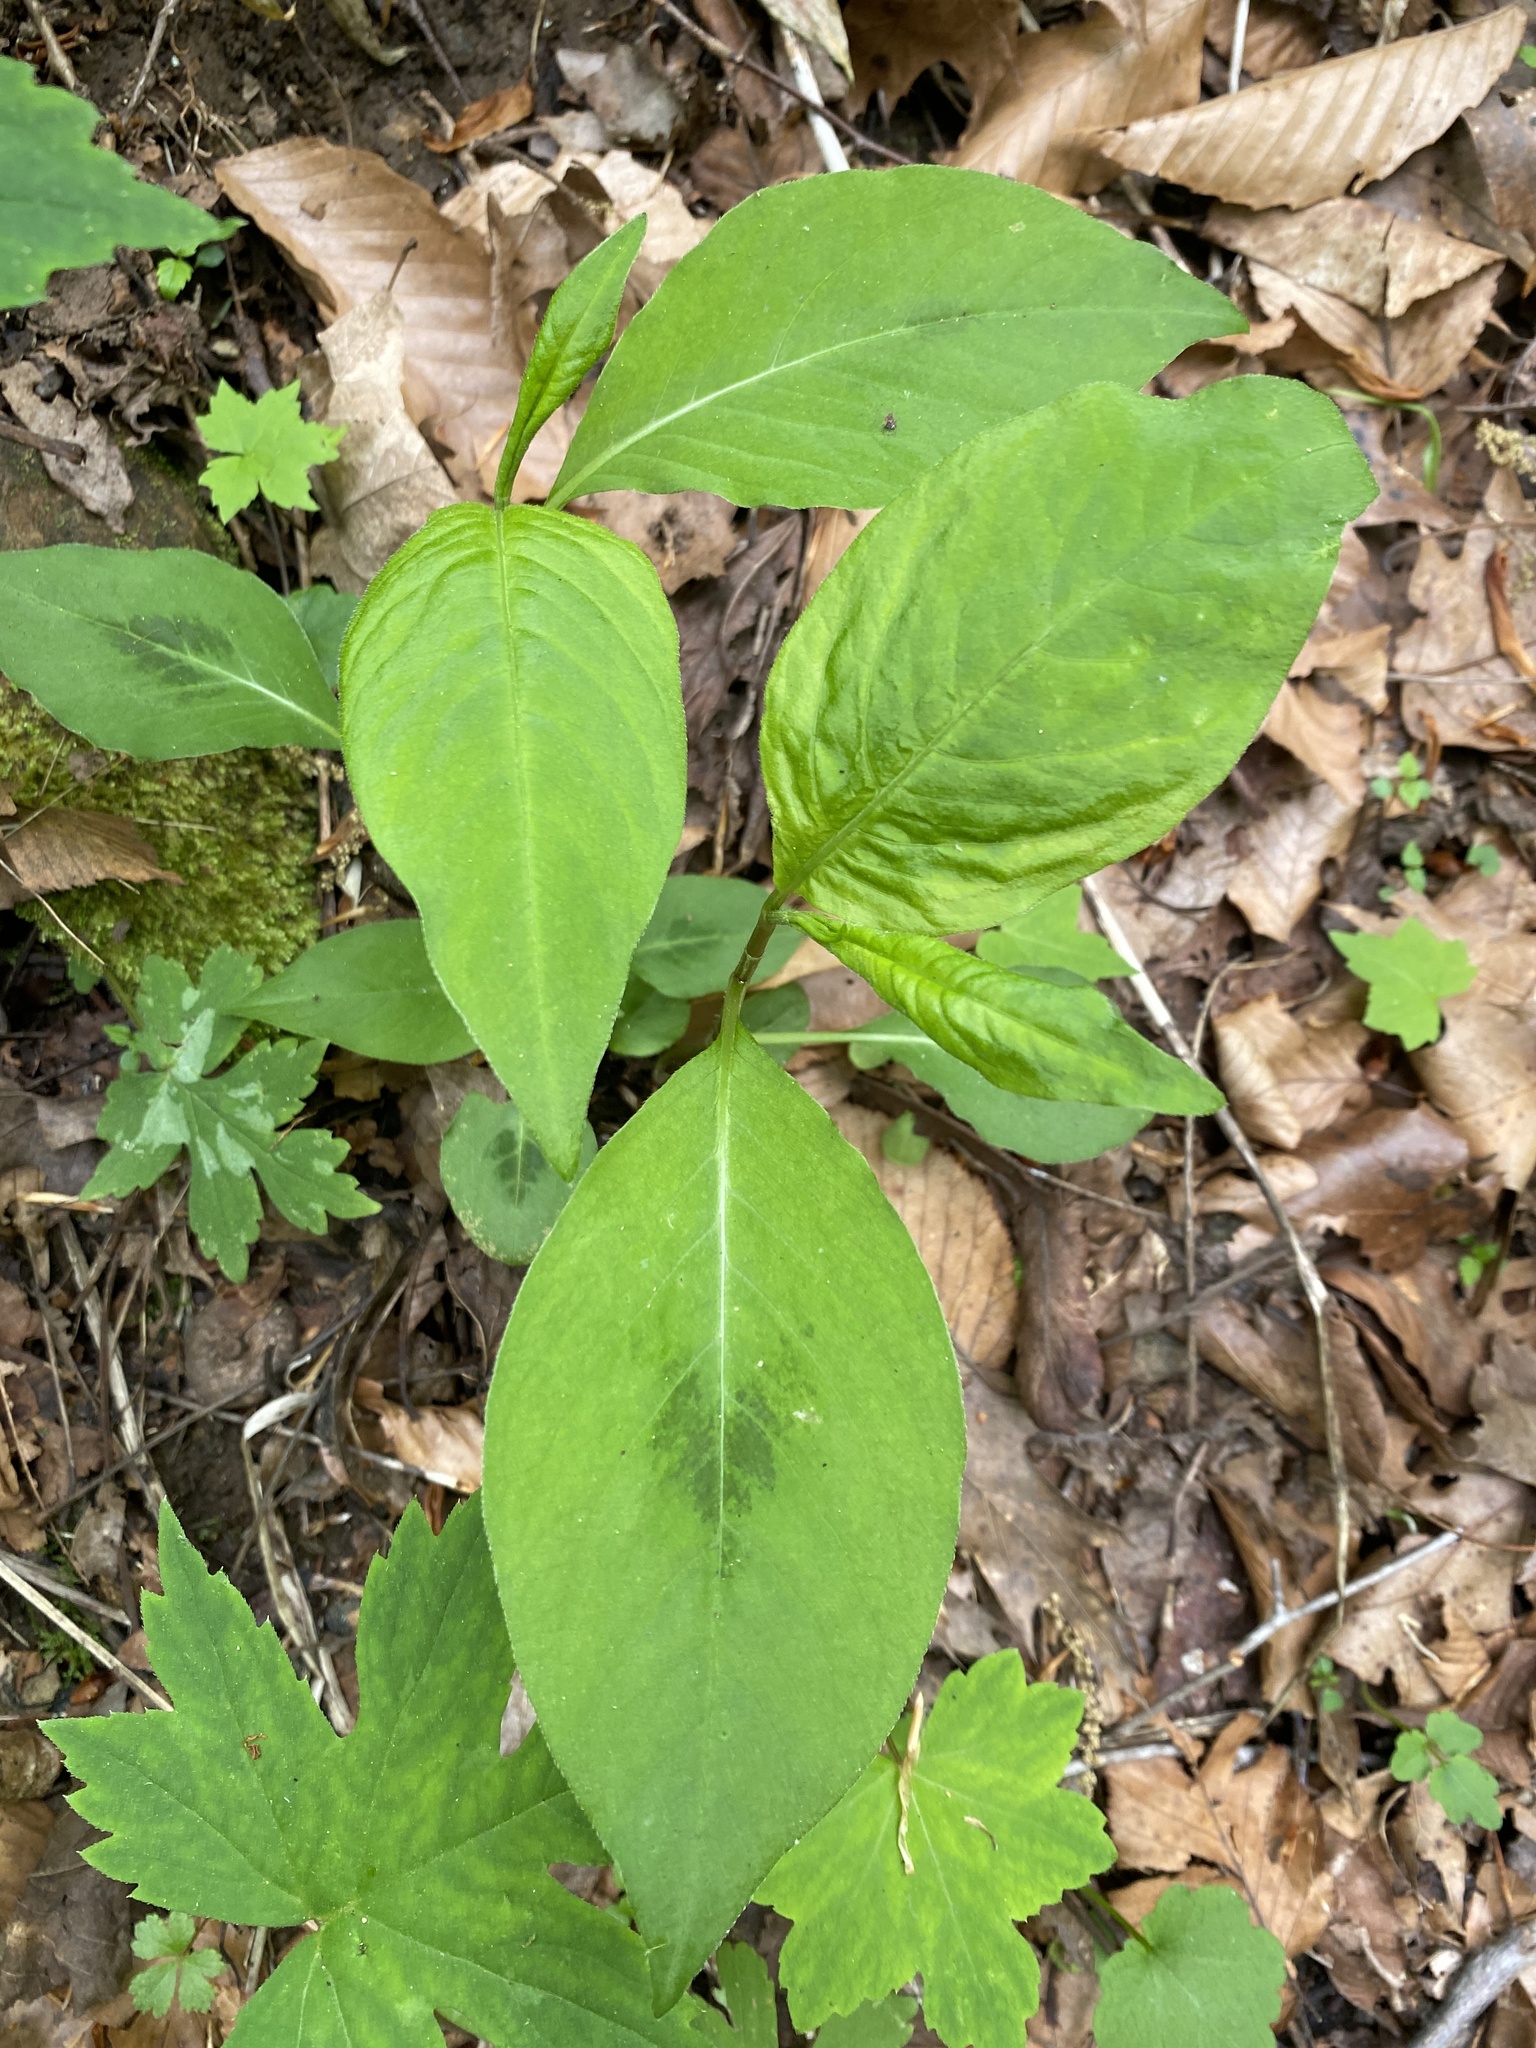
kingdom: Plantae
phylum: Tracheophyta
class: Magnoliopsida
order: Caryophyllales
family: Polygonaceae
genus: Persicaria
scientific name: Persicaria virginiana
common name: Jumpseed
